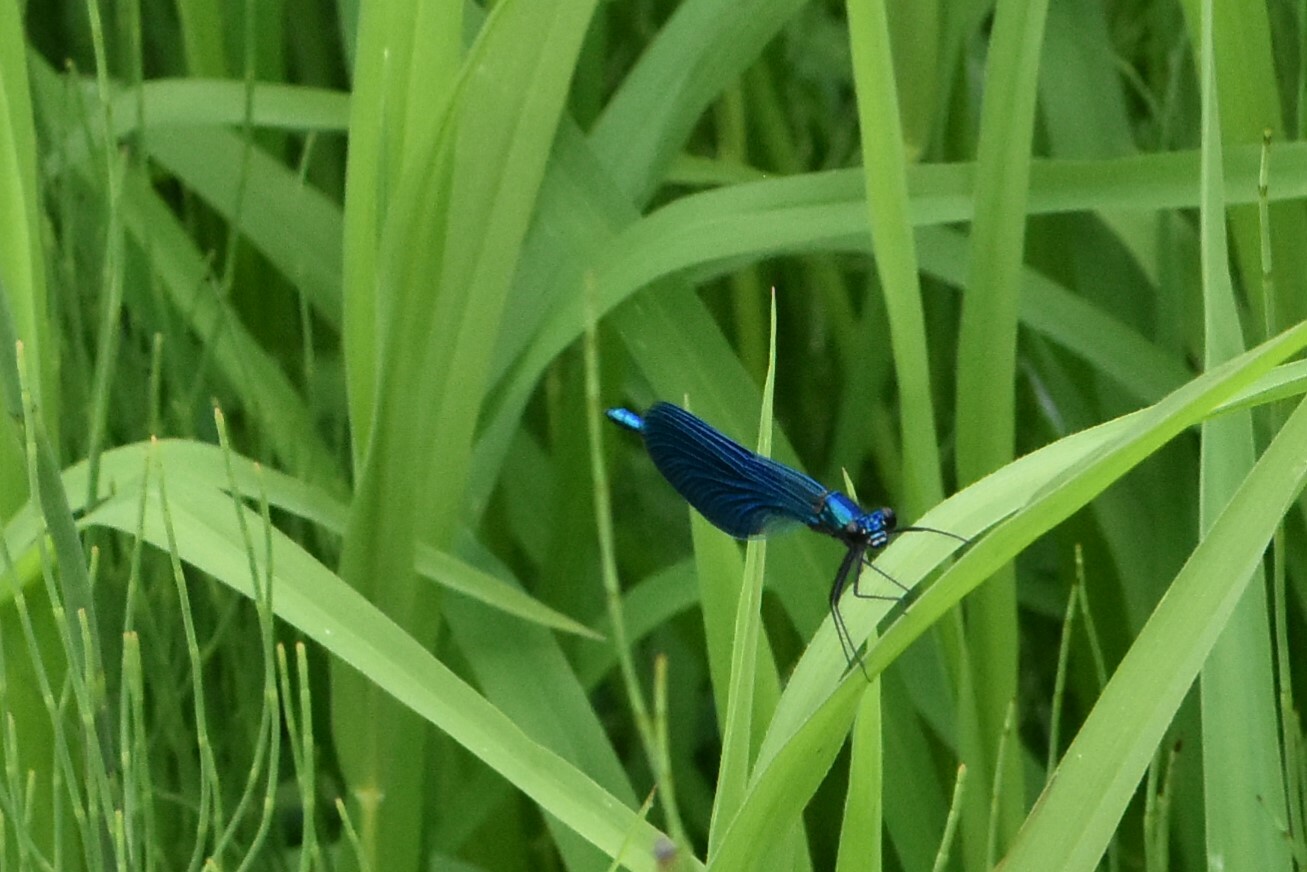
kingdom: Animalia
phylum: Arthropoda
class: Insecta
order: Odonata
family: Calopterygidae
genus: Calopteryx
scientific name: Calopteryx splendens
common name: Banded demoiselle
